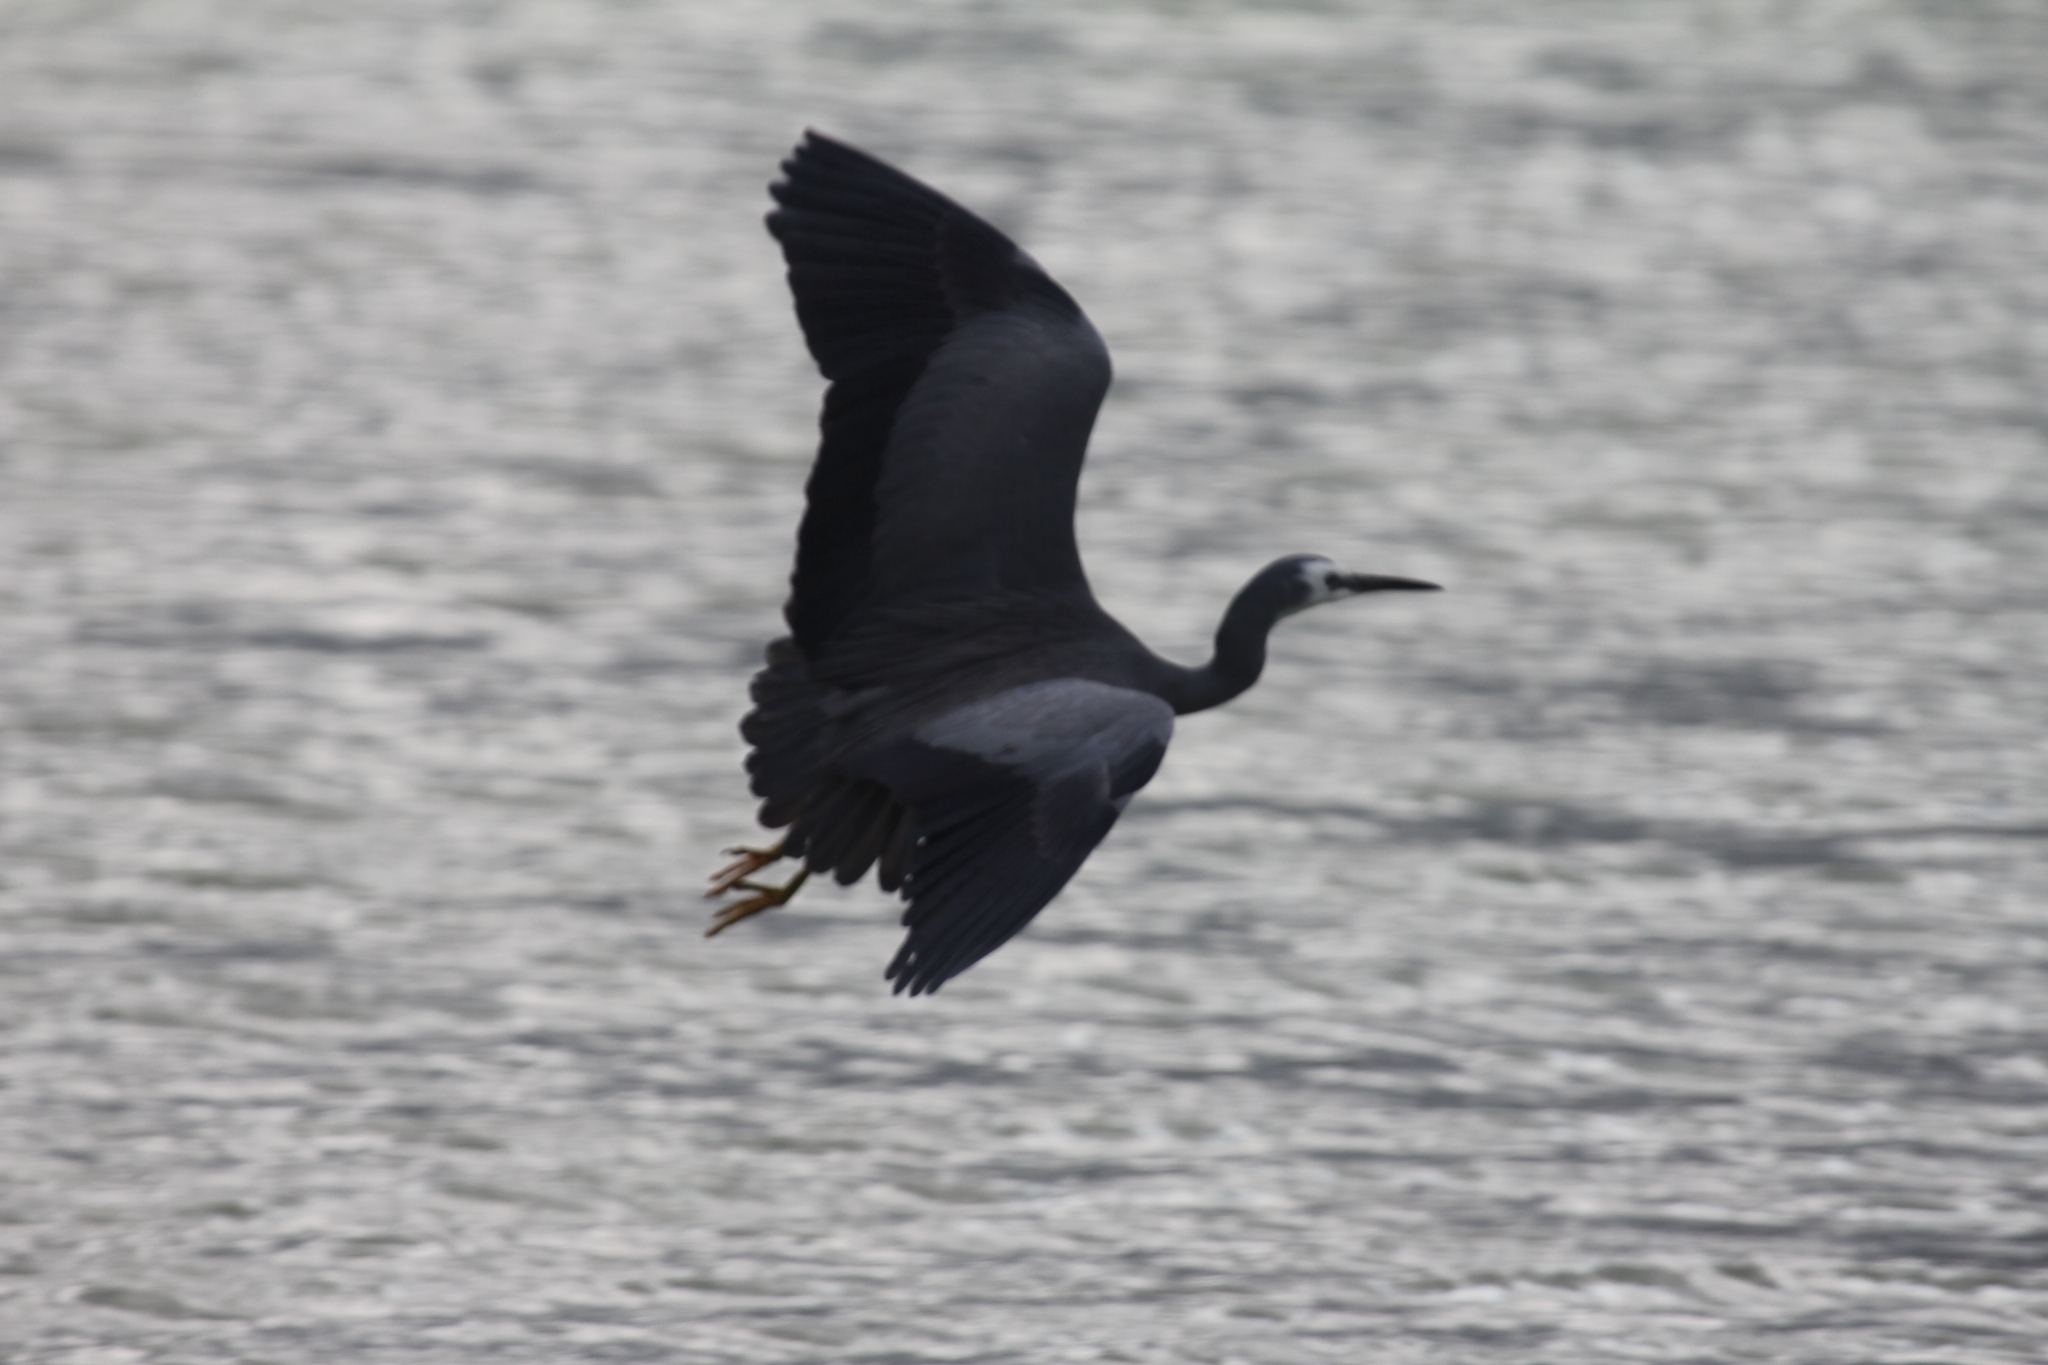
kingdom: Animalia
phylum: Chordata
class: Aves
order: Pelecaniformes
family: Ardeidae
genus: Egretta
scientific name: Egretta novaehollandiae
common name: White-faced heron
